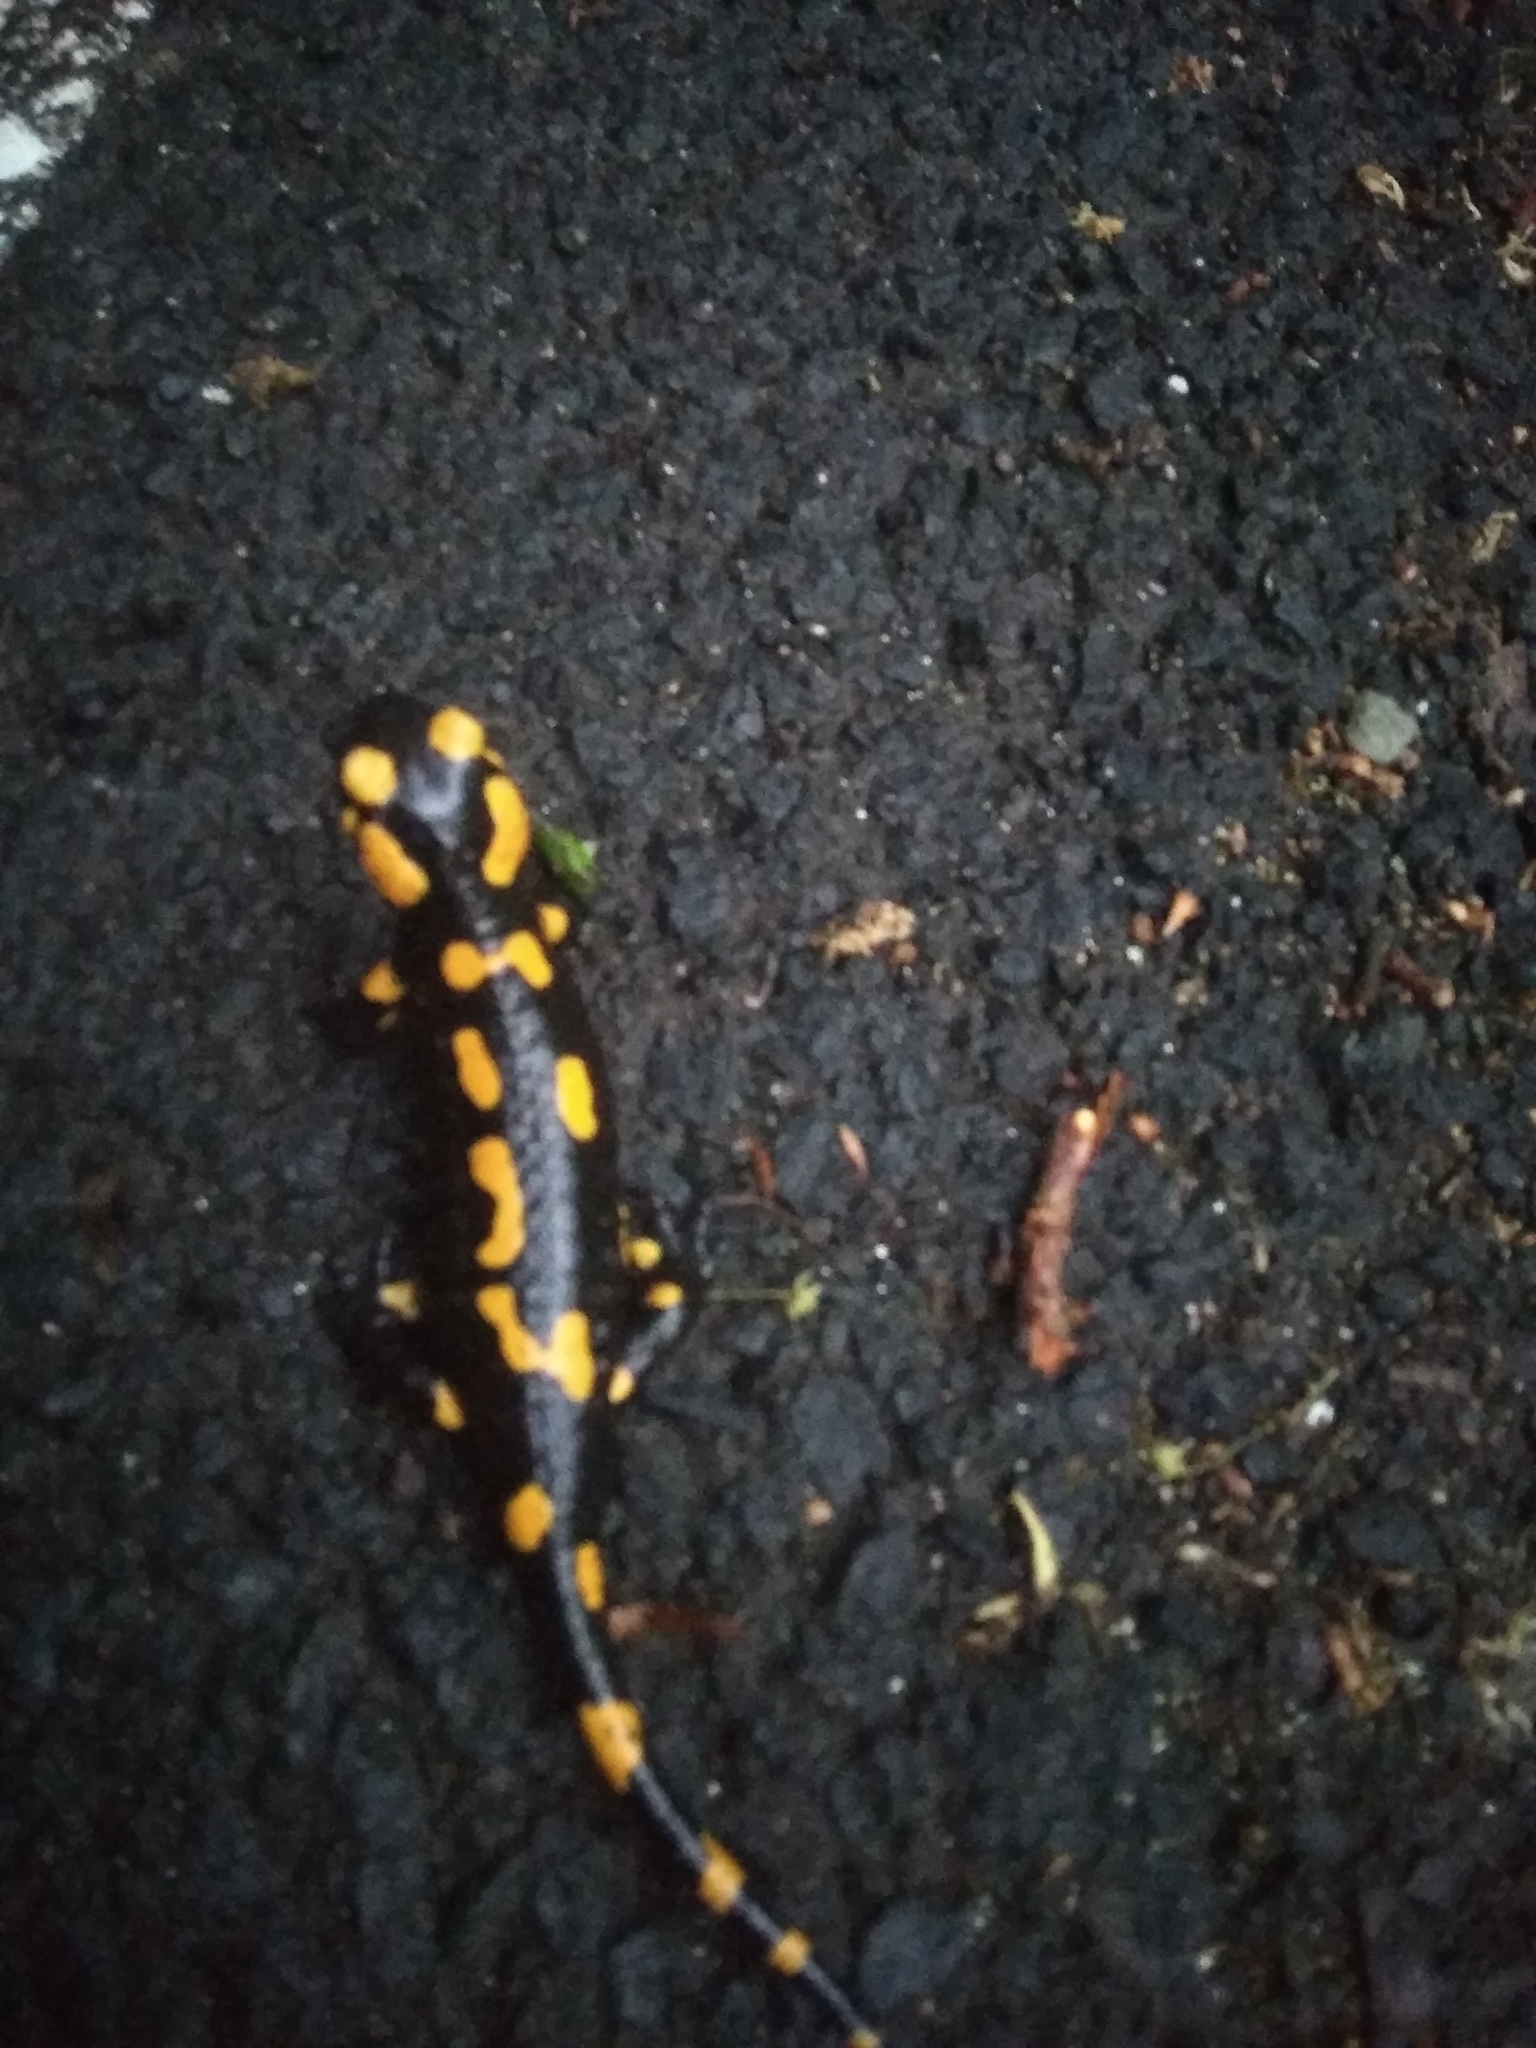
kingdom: Animalia
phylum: Chordata
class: Amphibia
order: Caudata
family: Salamandridae
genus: Salamandra
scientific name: Salamandra salamandra
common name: Fire salamander
